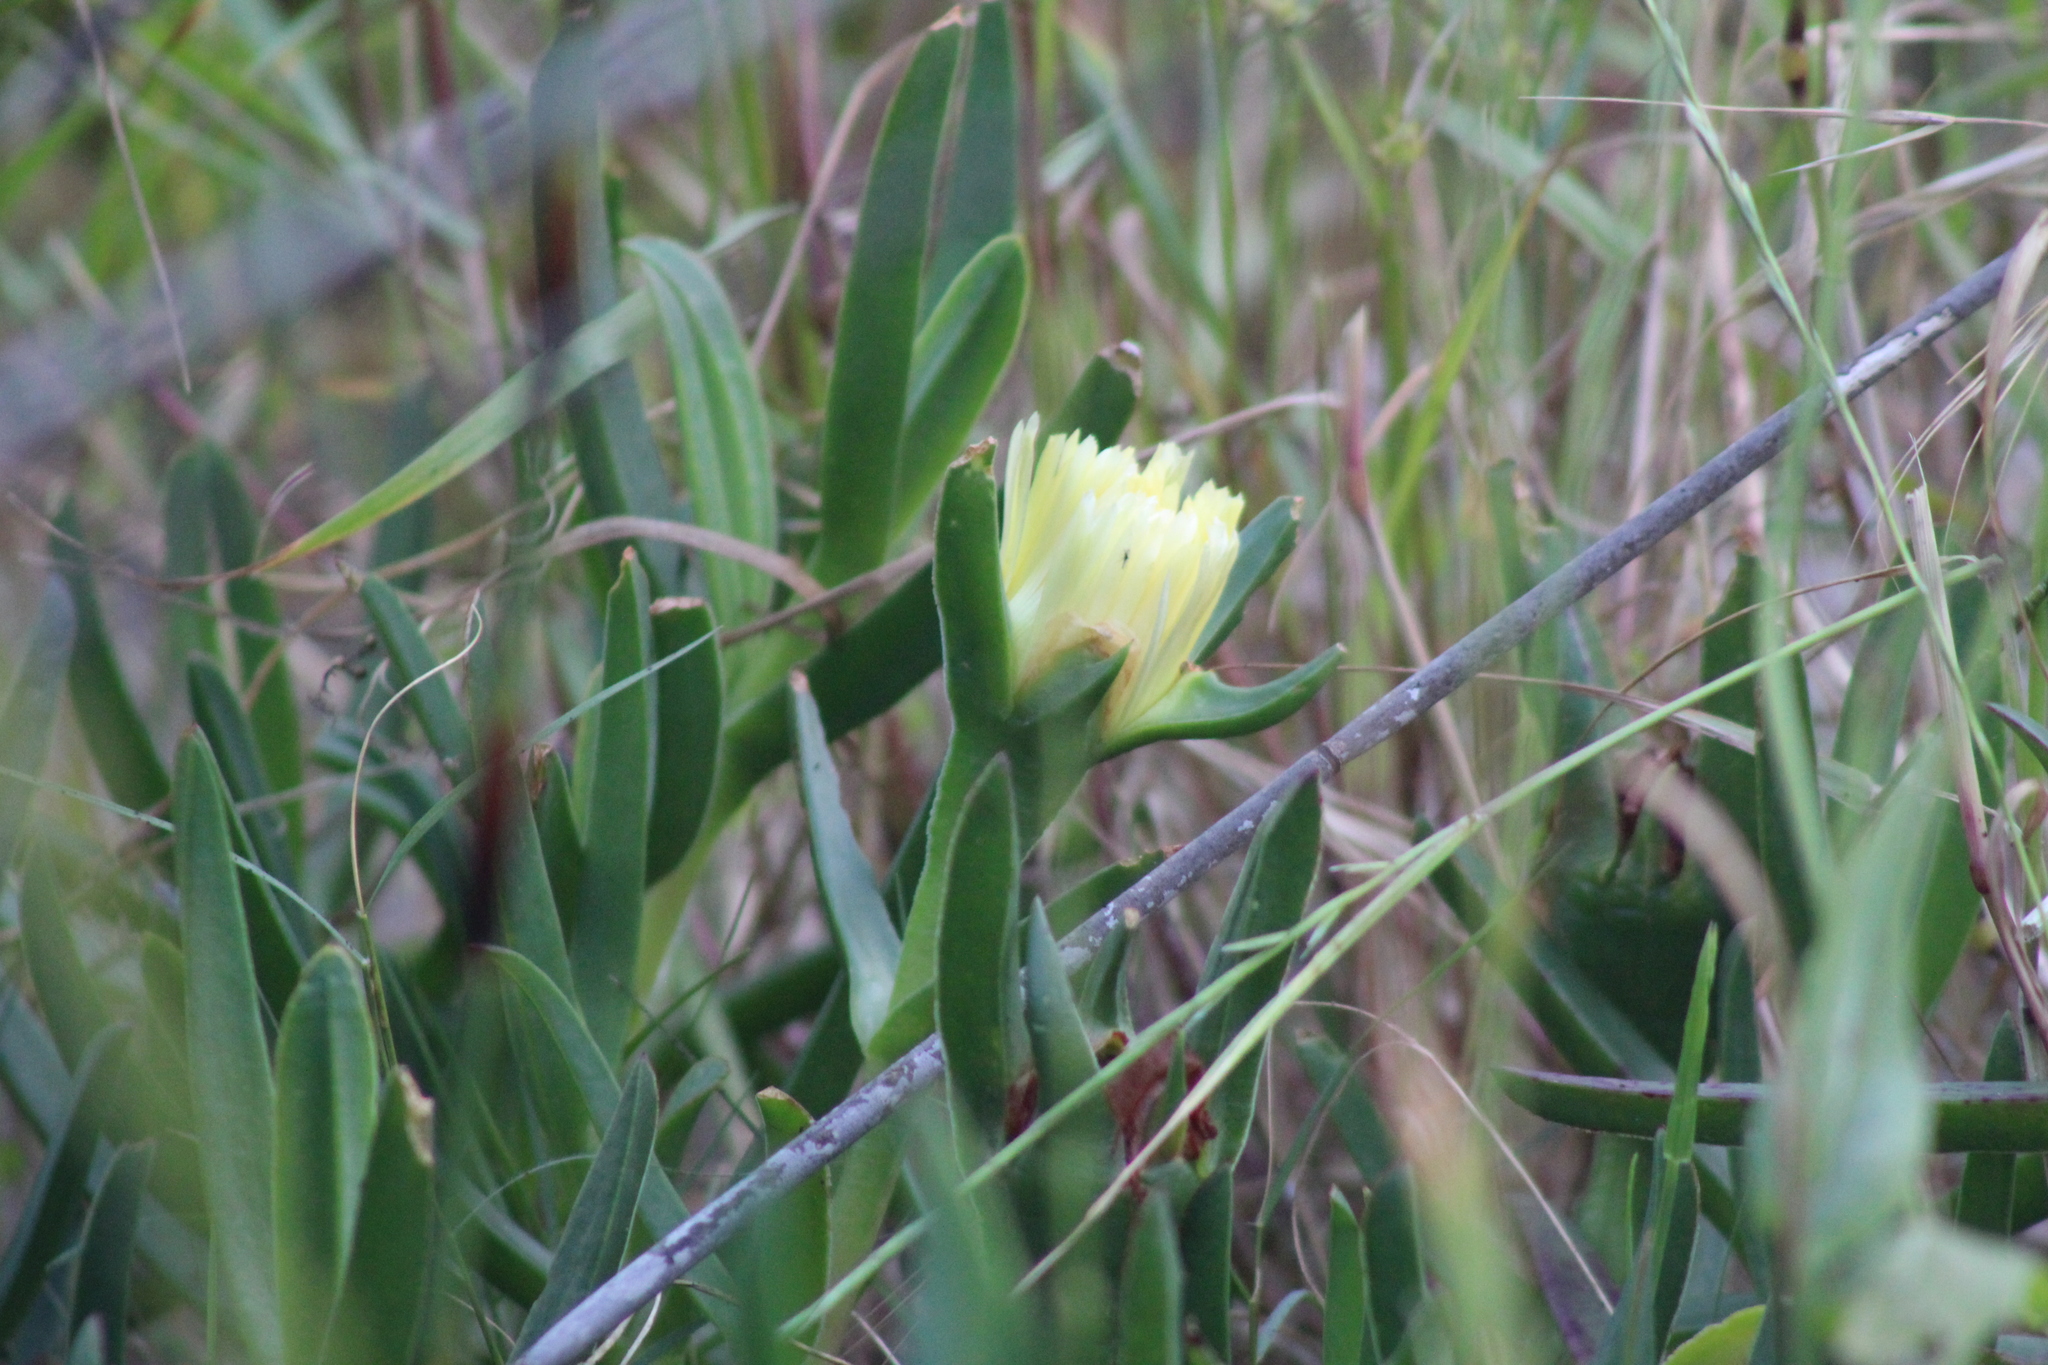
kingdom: Plantae
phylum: Tracheophyta
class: Magnoliopsida
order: Caryophyllales
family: Aizoaceae
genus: Carpobrotus
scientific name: Carpobrotus edulis
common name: Hottentot-fig
